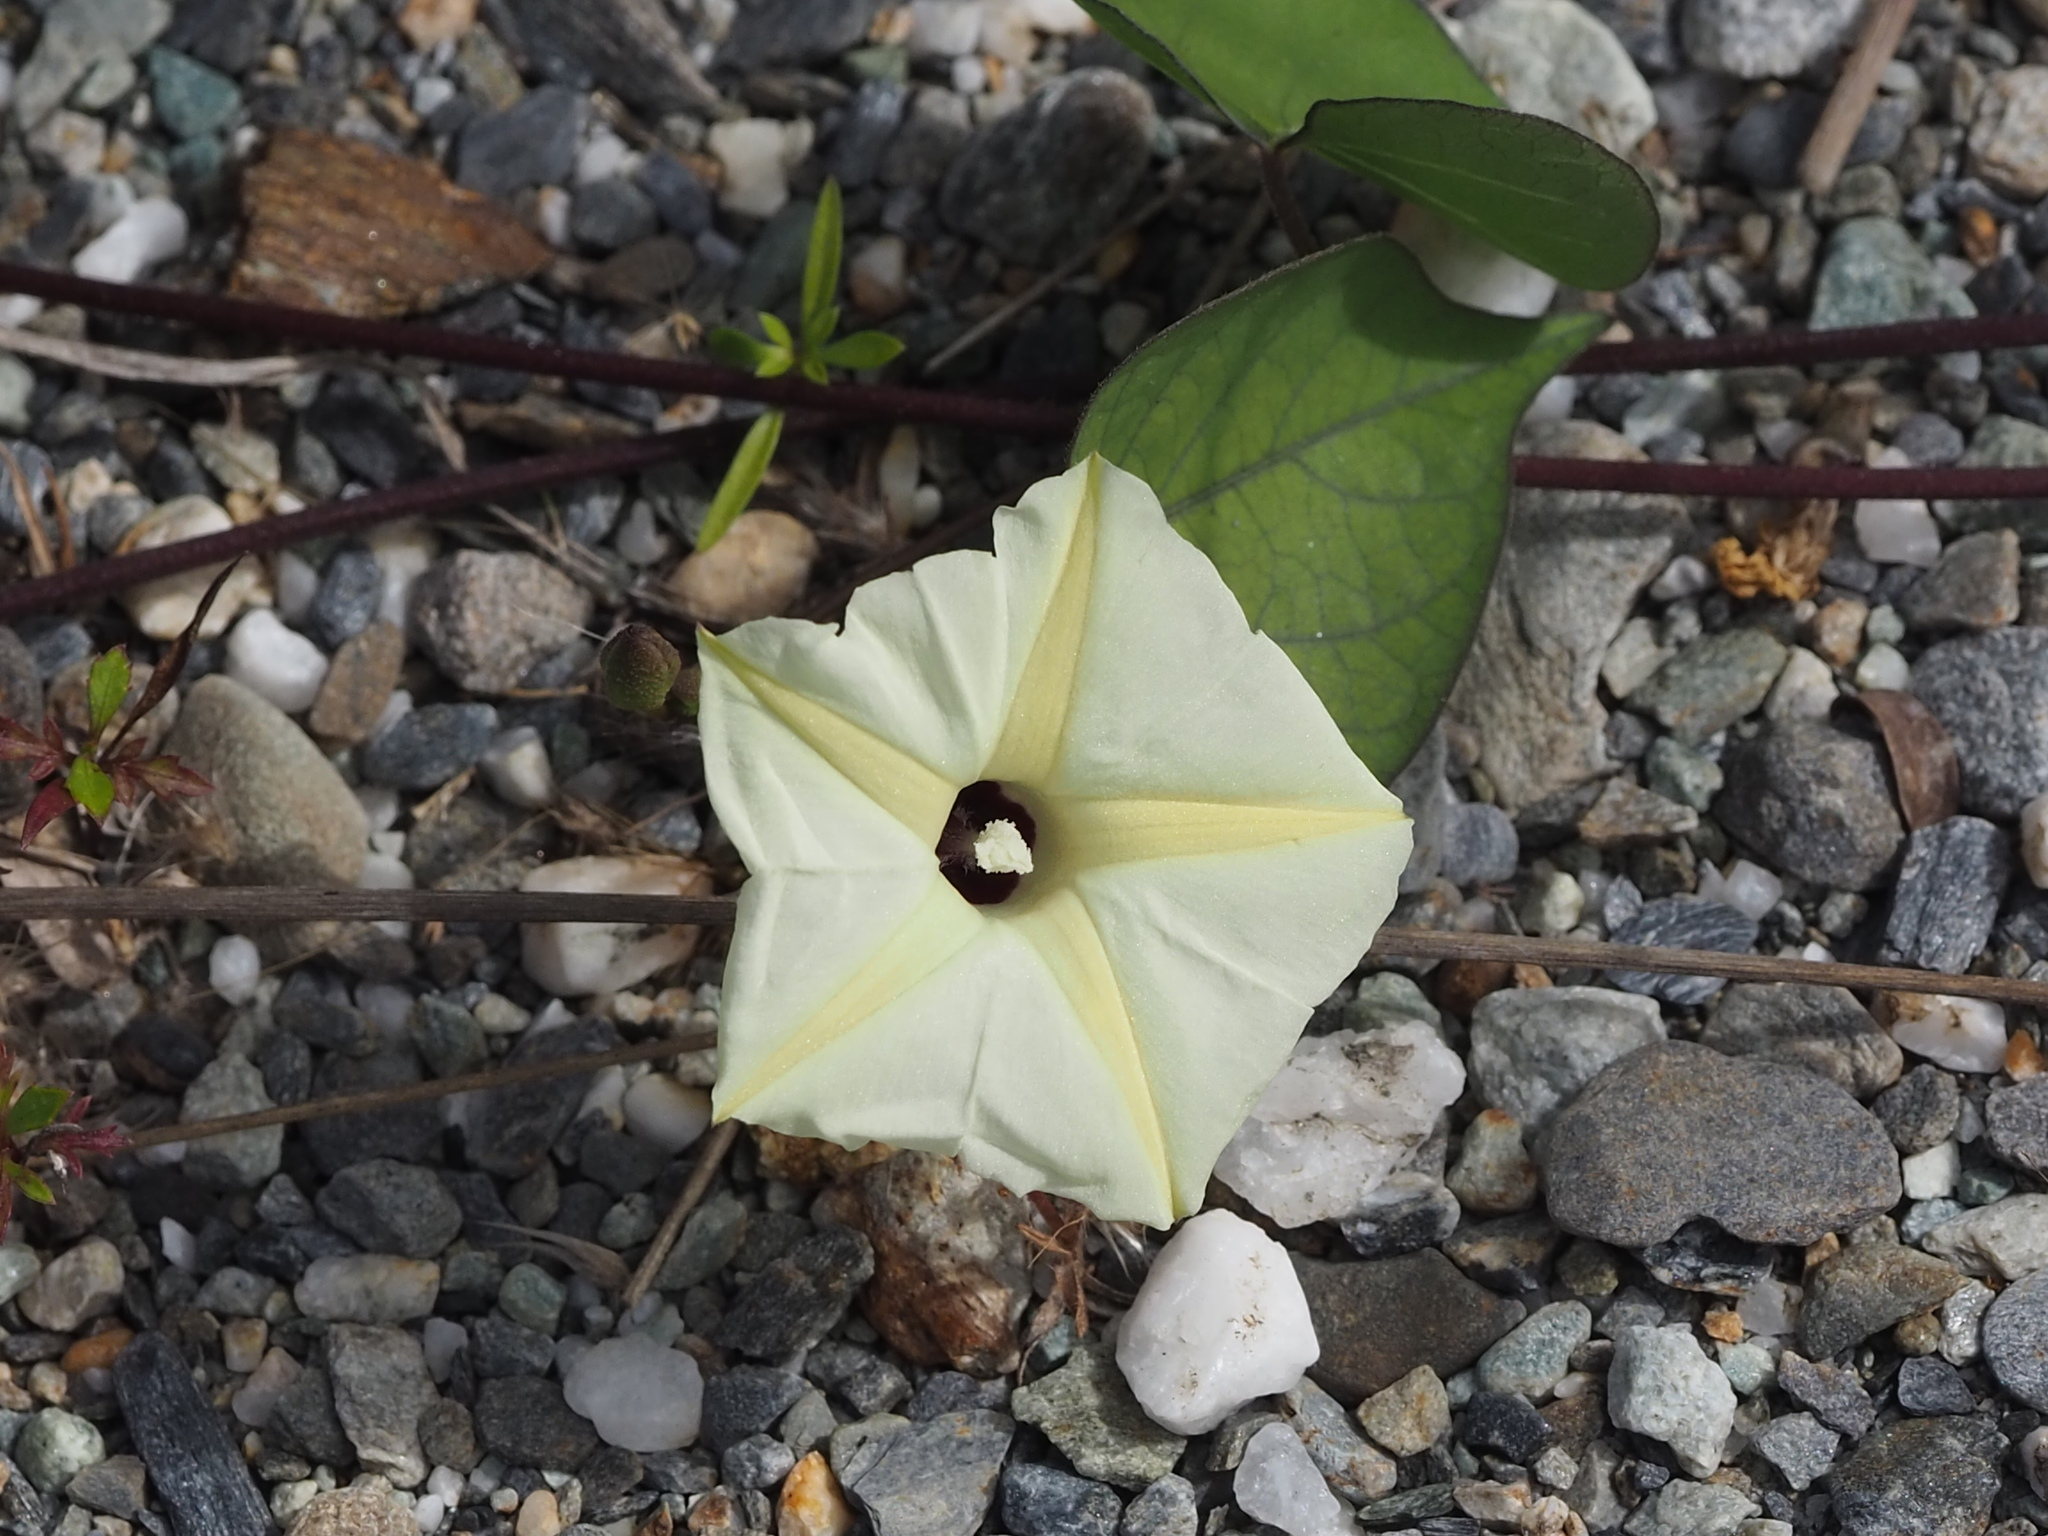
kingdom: Plantae
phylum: Tracheophyta
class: Magnoliopsida
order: Solanales
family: Convolvulaceae
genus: Ipomoea
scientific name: Ipomoea obscura
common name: Obscure morning-glory
